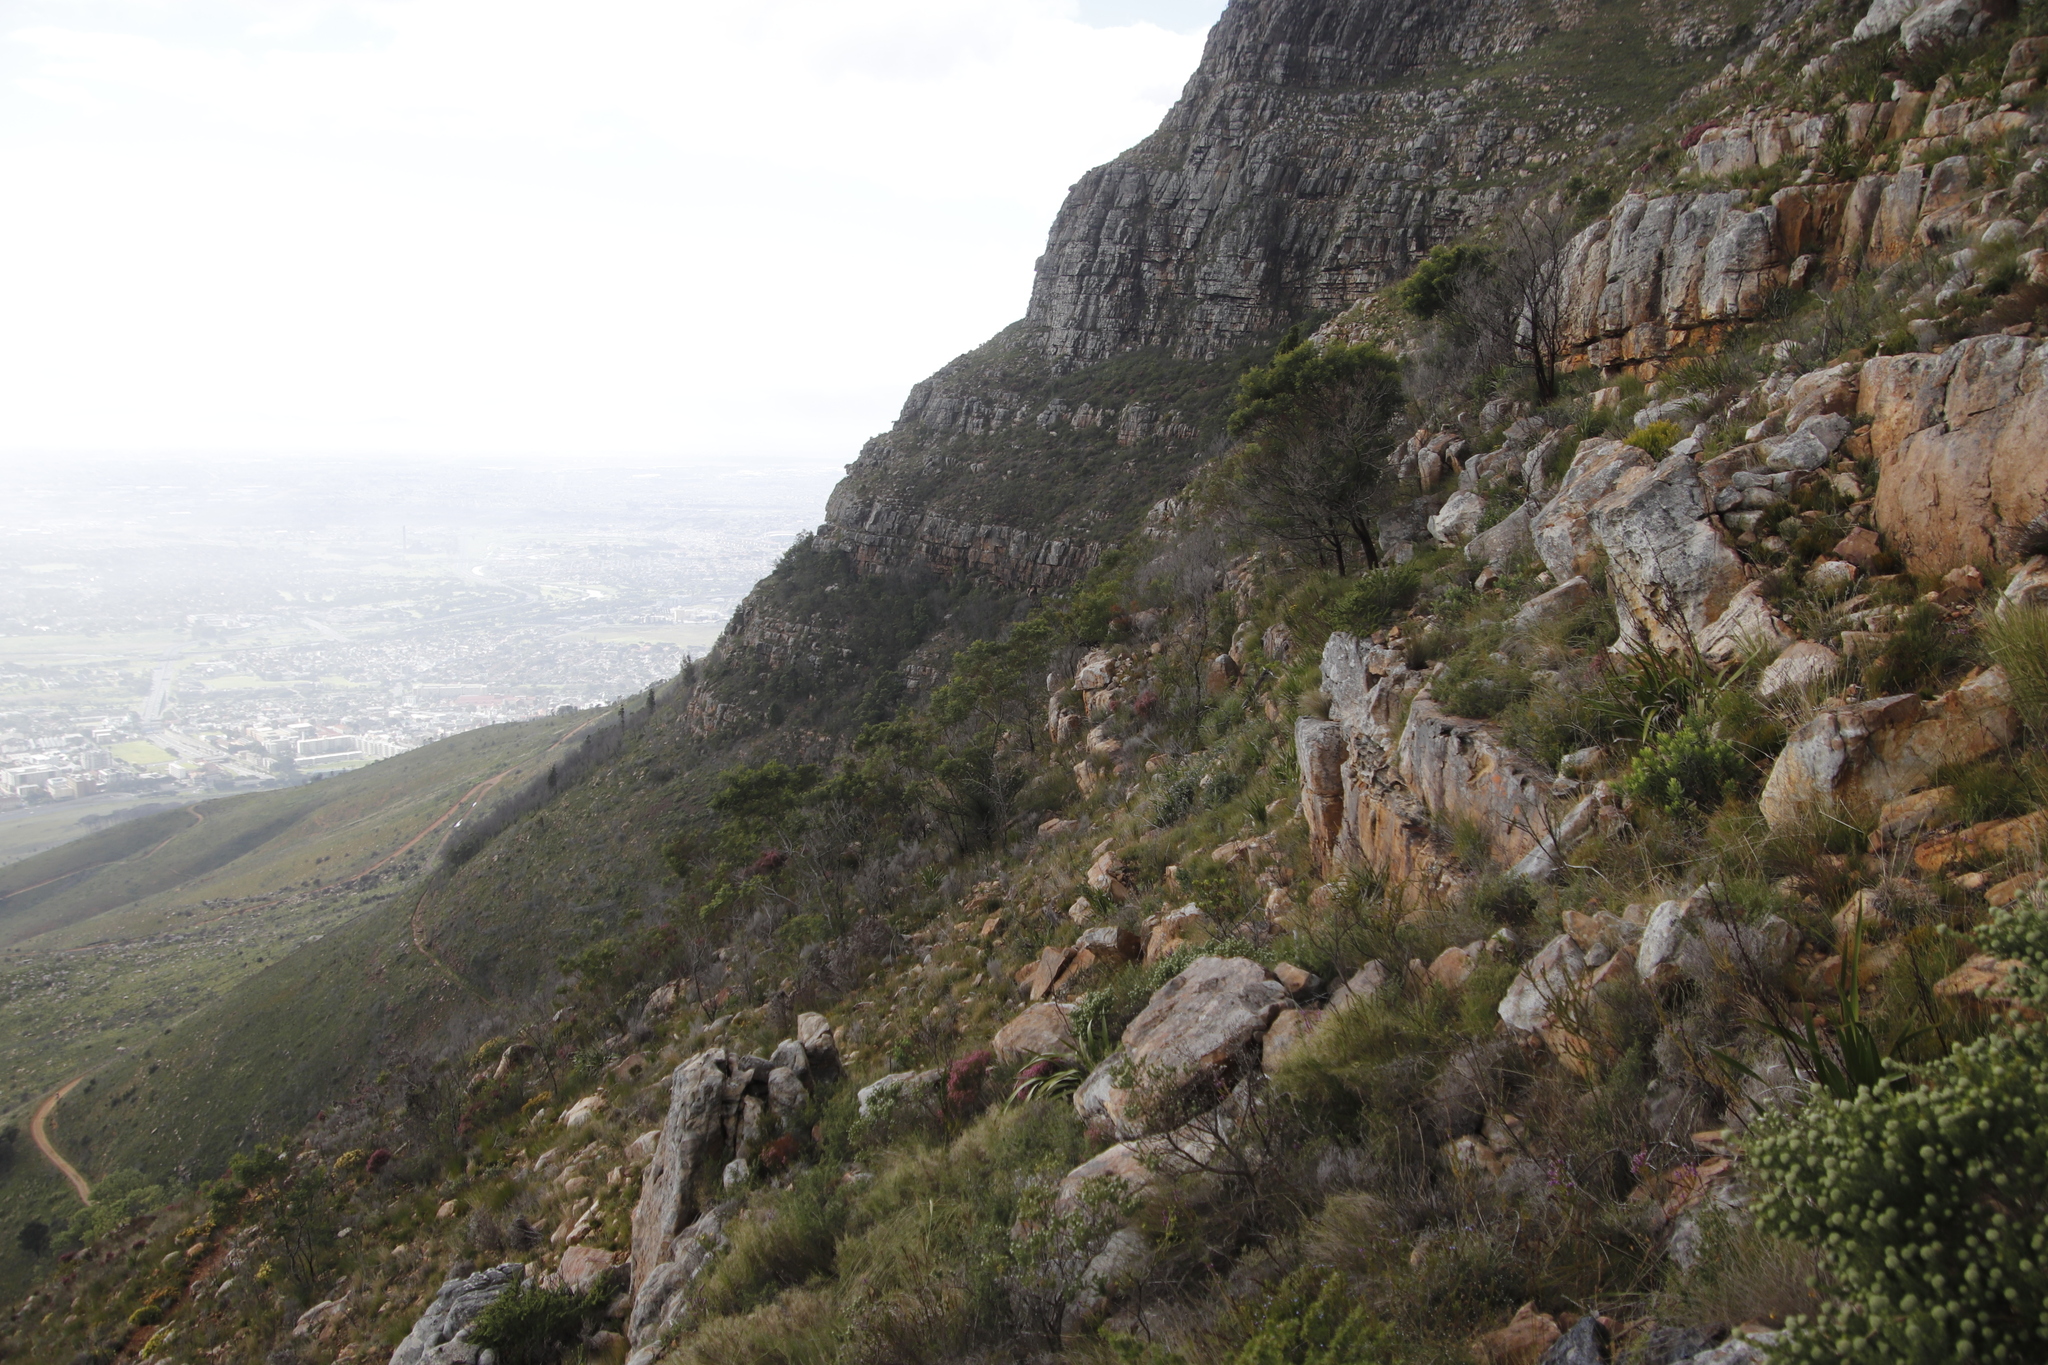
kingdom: Plantae
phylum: Tracheophyta
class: Magnoliopsida
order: Fabales
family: Fabaceae
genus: Acacia
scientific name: Acacia mearnsii
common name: Black wattle
